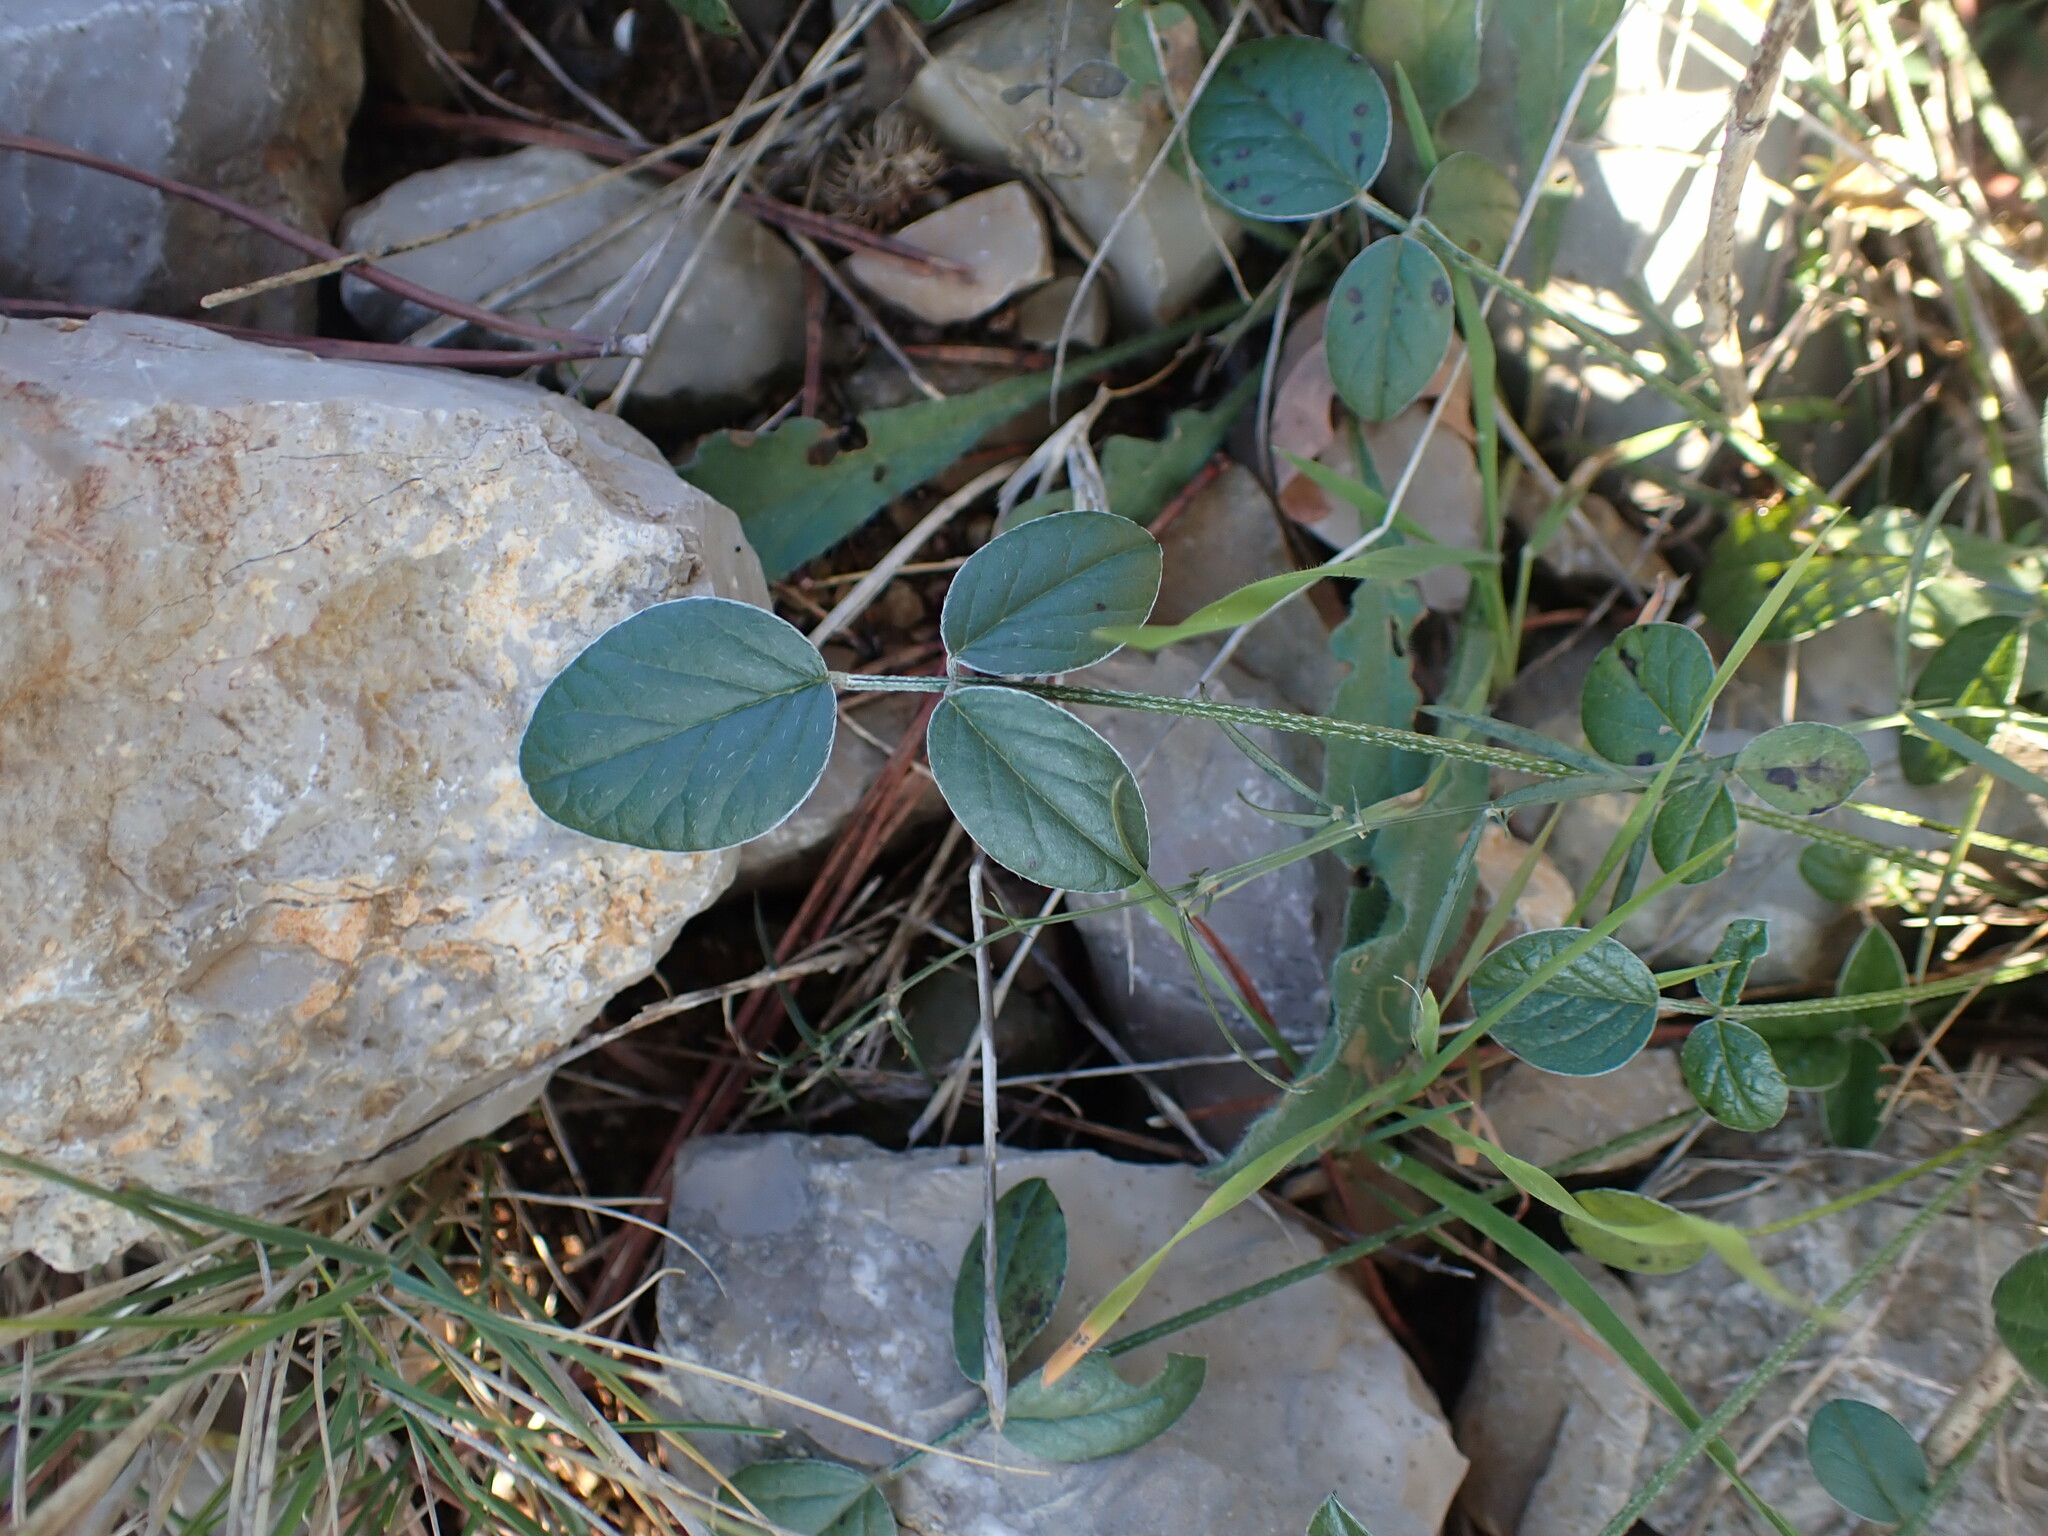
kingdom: Plantae
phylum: Tracheophyta
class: Magnoliopsida
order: Fabales
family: Fabaceae
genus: Bituminaria
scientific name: Bituminaria bituminosa
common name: Arabian pea
